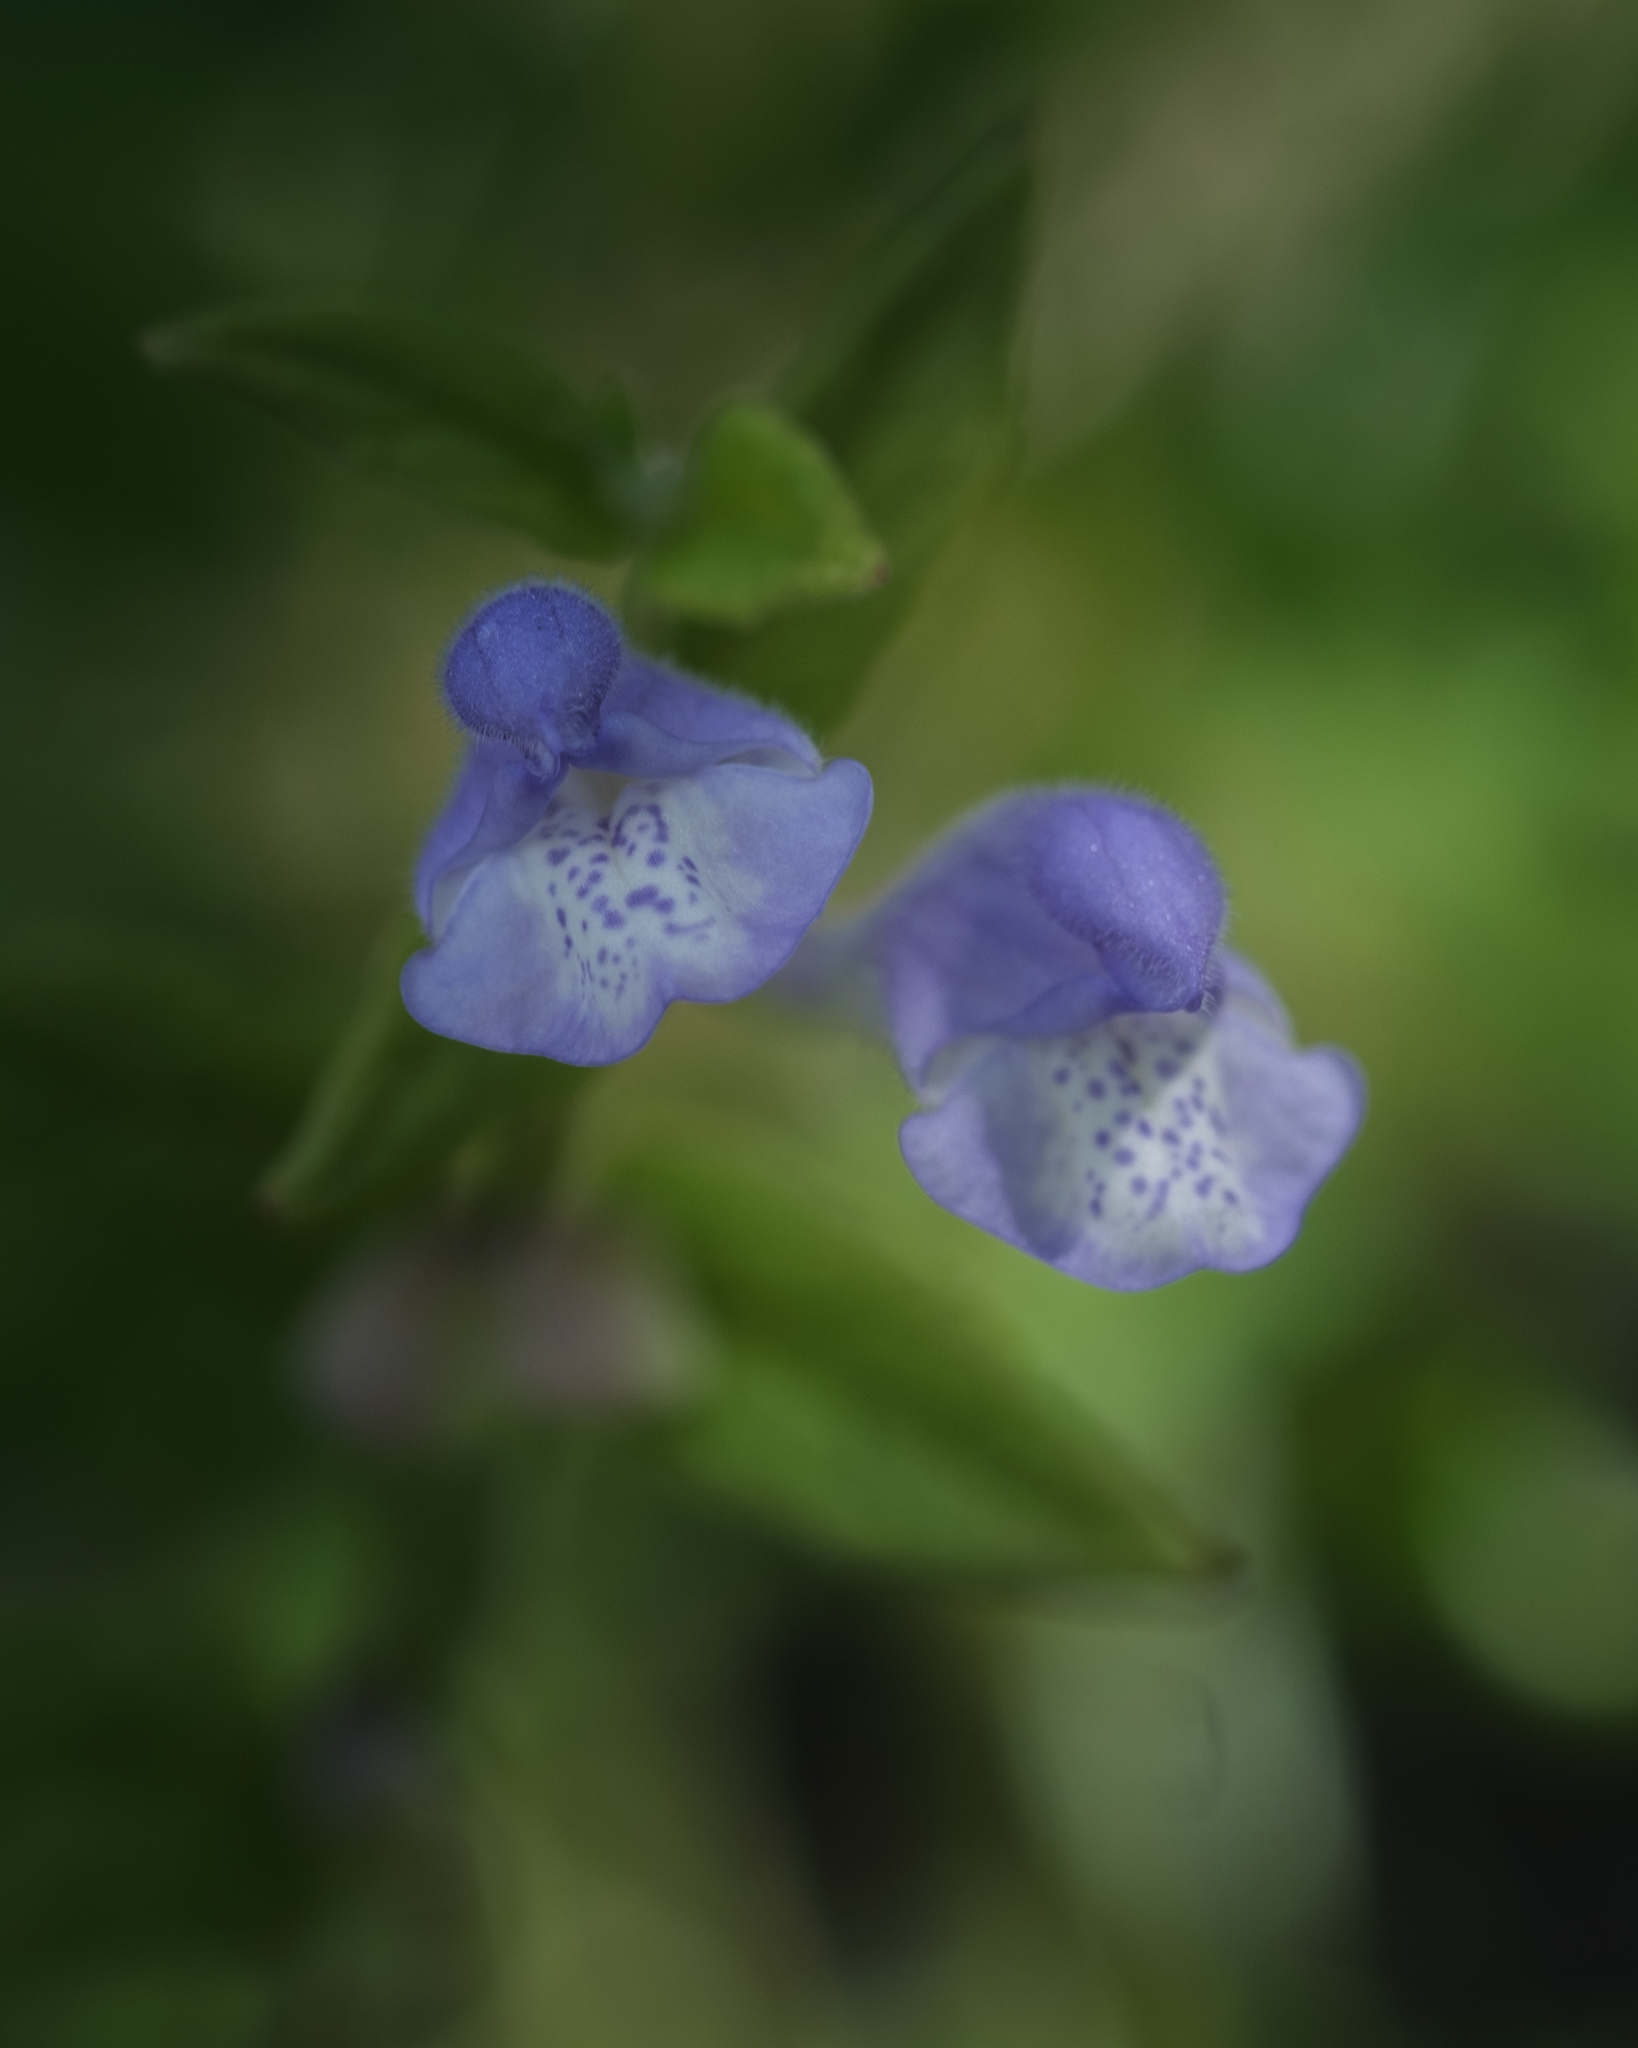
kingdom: Plantae
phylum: Tracheophyta
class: Magnoliopsida
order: Lamiales
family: Lamiaceae
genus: Scutellaria
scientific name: Scutellaria galericulata
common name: Skullcap
